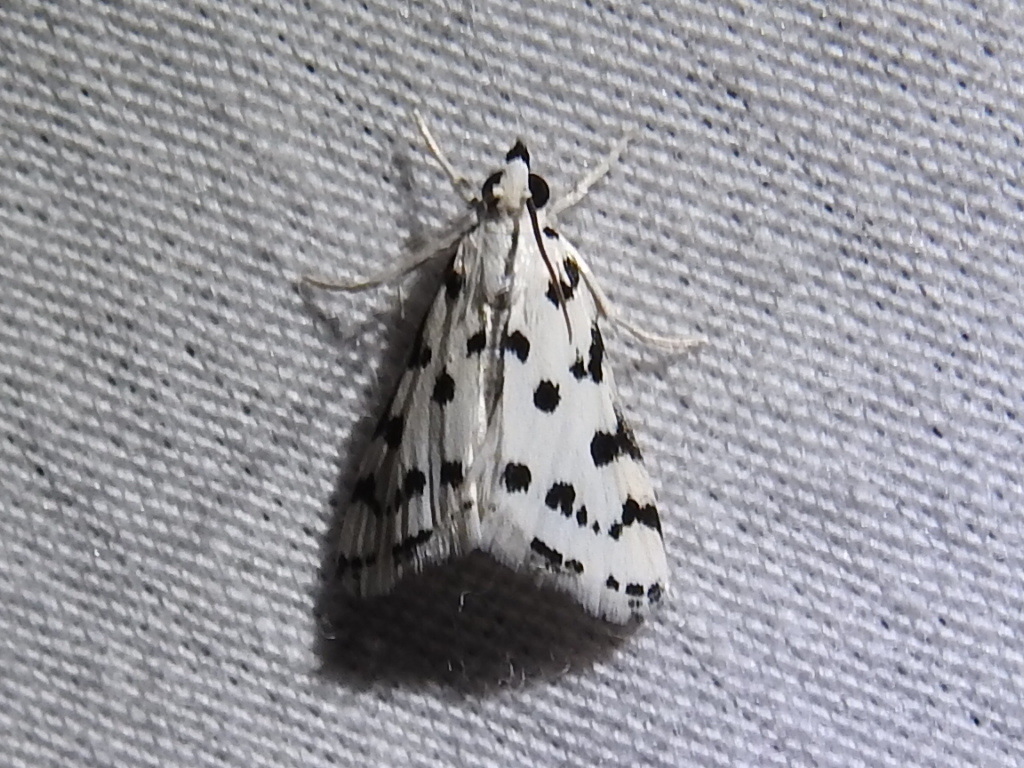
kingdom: Animalia
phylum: Arthropoda
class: Insecta
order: Lepidoptera
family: Crambidae
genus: Eustixia
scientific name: Eustixia pupula
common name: American cabbage pearl
